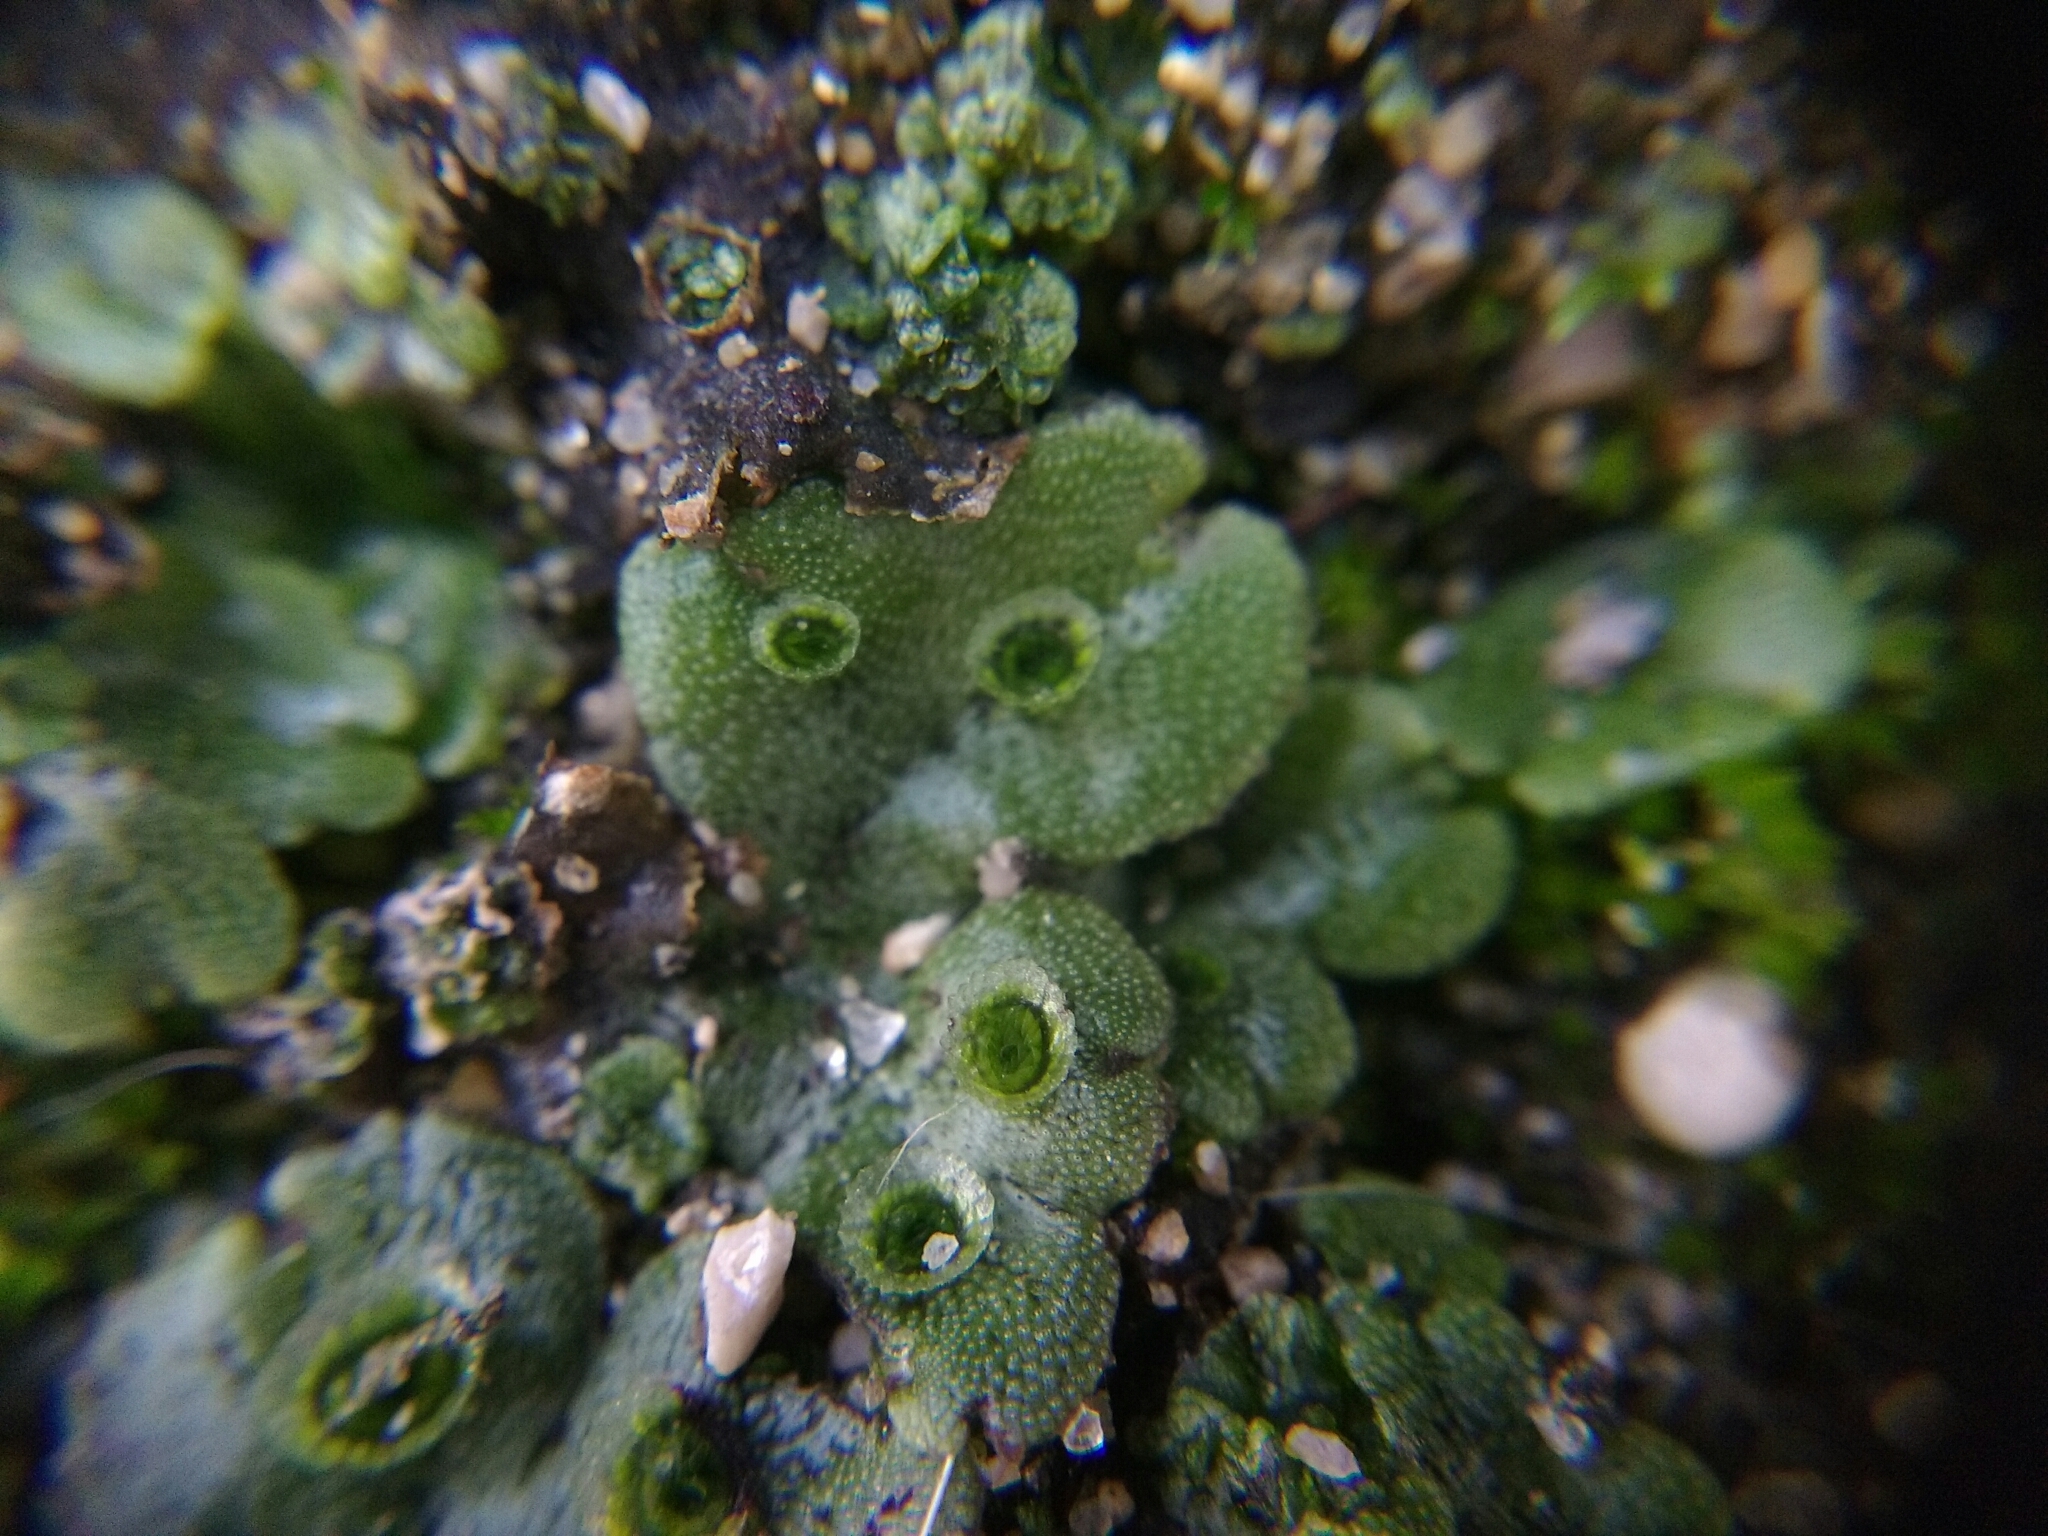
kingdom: Plantae
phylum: Marchantiophyta
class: Marchantiopsida
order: Marchantiales
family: Marchantiaceae
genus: Marchantia
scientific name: Marchantia polymorpha
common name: Common liverwort
